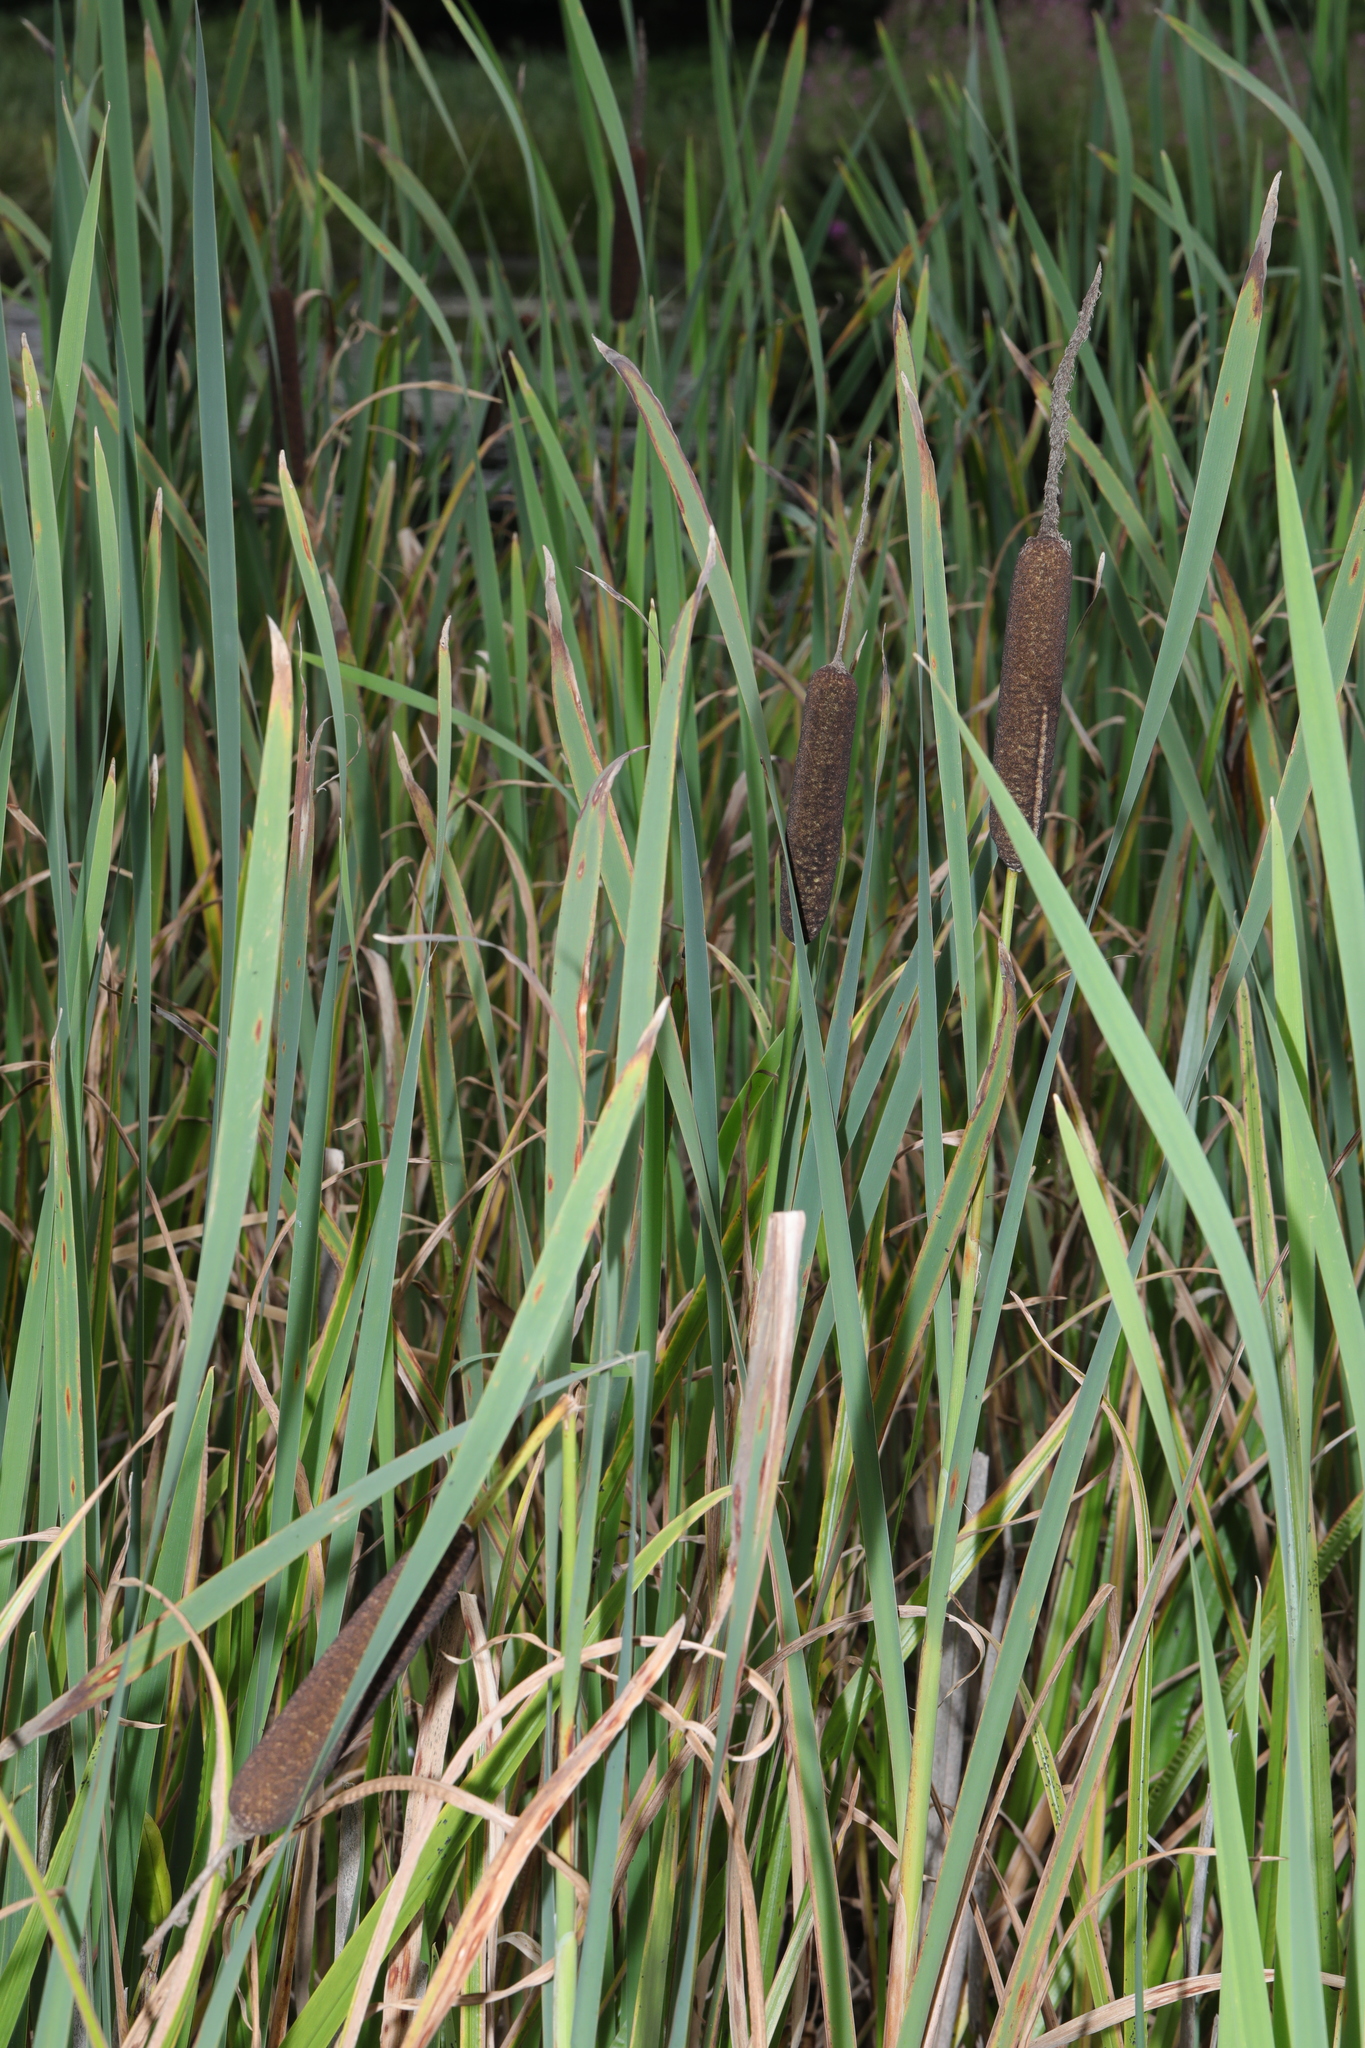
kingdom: Plantae
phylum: Tracheophyta
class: Liliopsida
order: Poales
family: Typhaceae
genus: Typha
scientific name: Typha latifolia
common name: Broadleaf cattail
